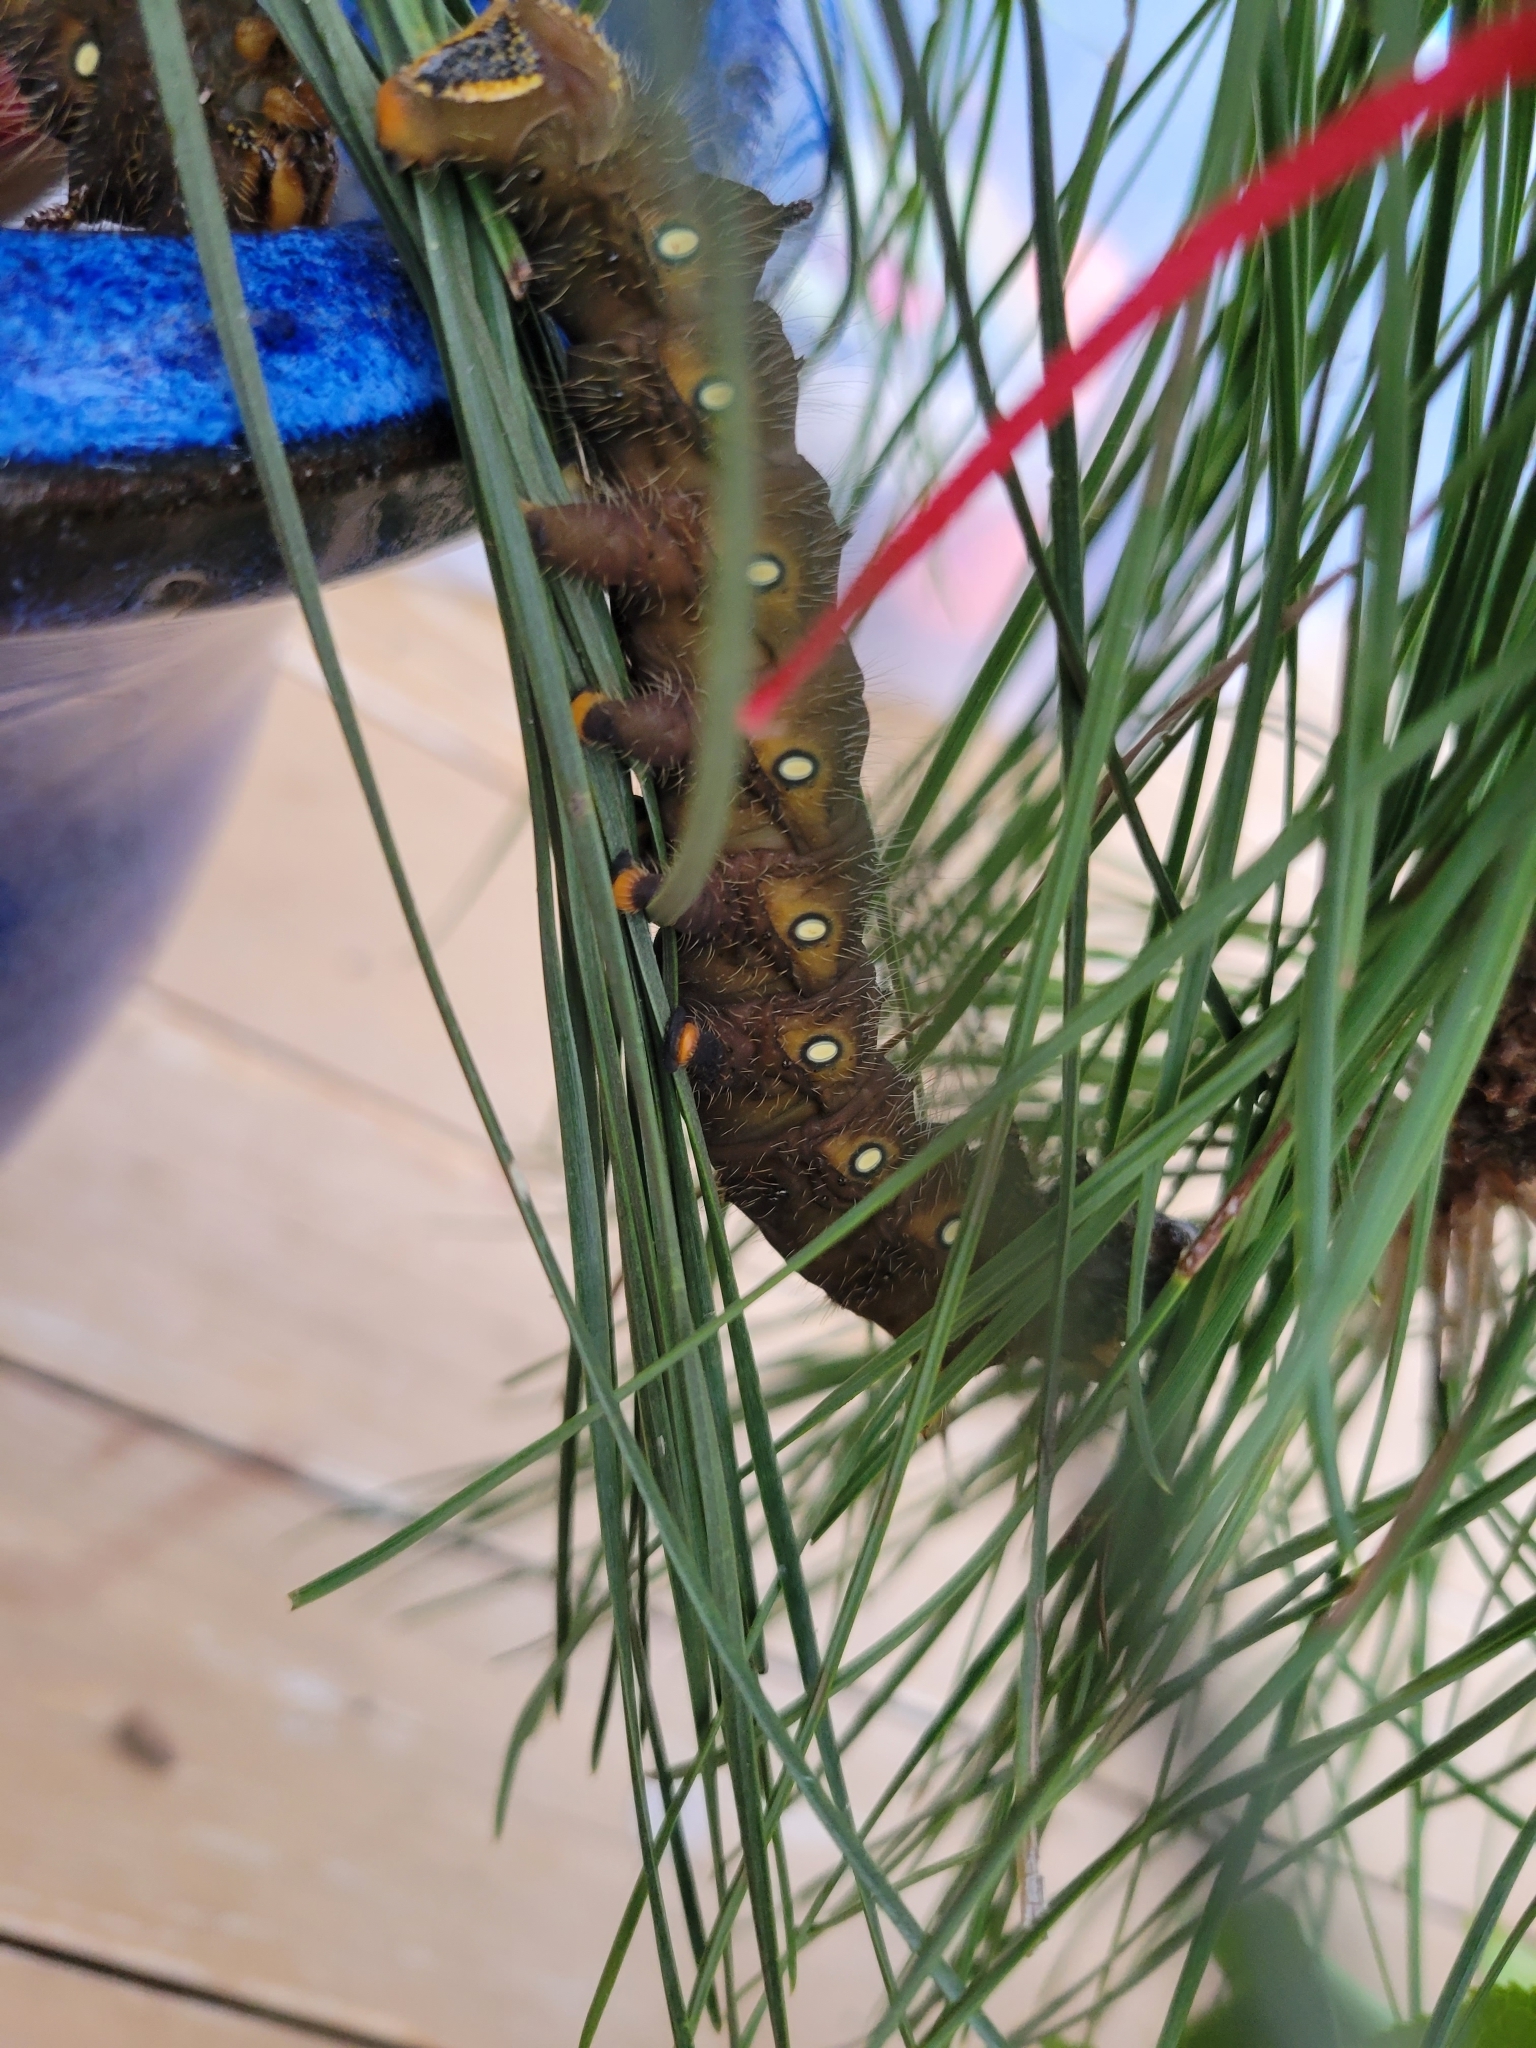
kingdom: Animalia
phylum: Arthropoda
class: Insecta
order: Lepidoptera
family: Saturniidae
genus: Eacles
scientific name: Eacles imperialis
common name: Imperial moth
